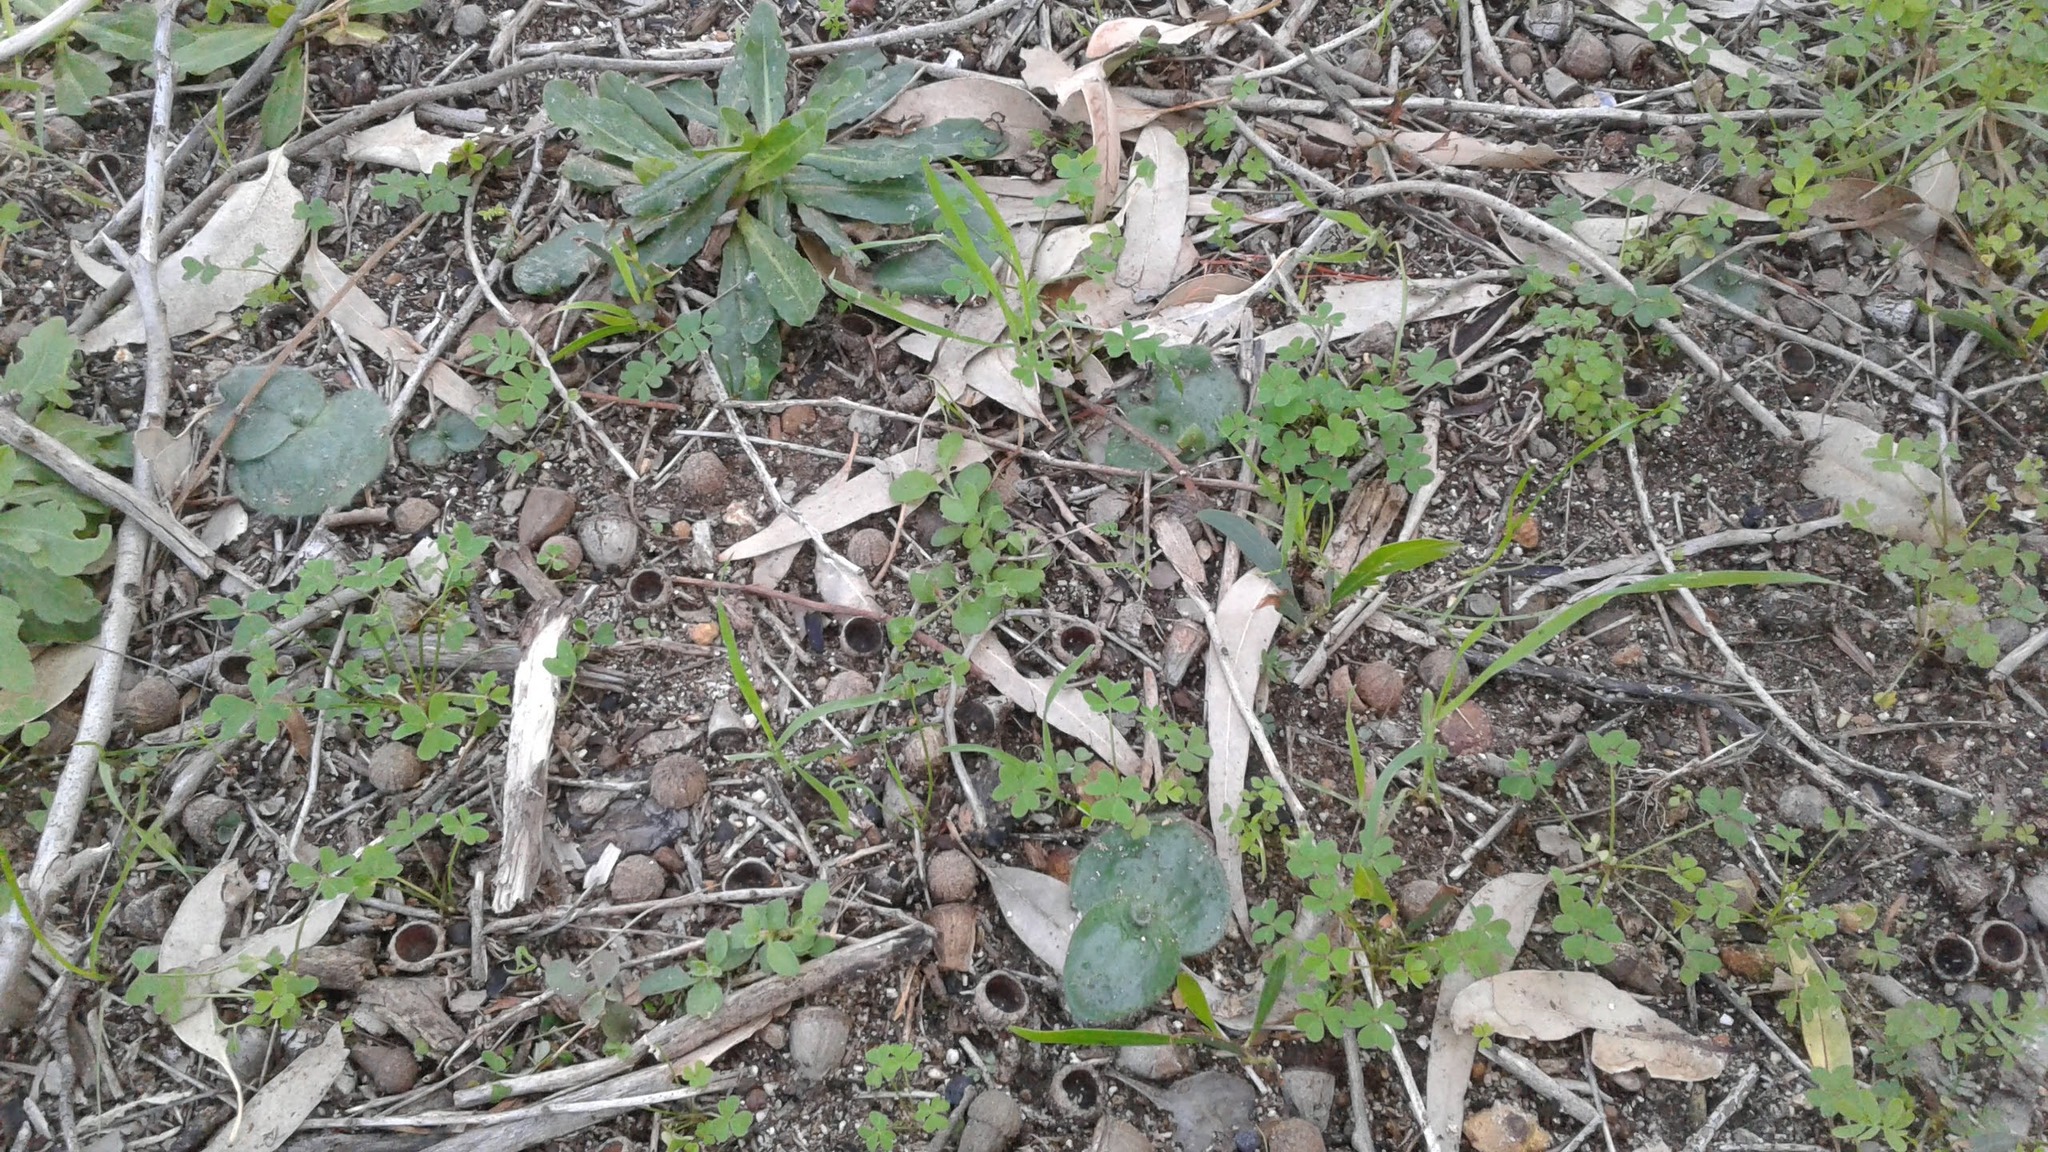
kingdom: Plantae
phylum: Tracheophyta
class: Liliopsida
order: Asparagales
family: Orchidaceae
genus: Holothrix
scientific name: Holothrix villosa
